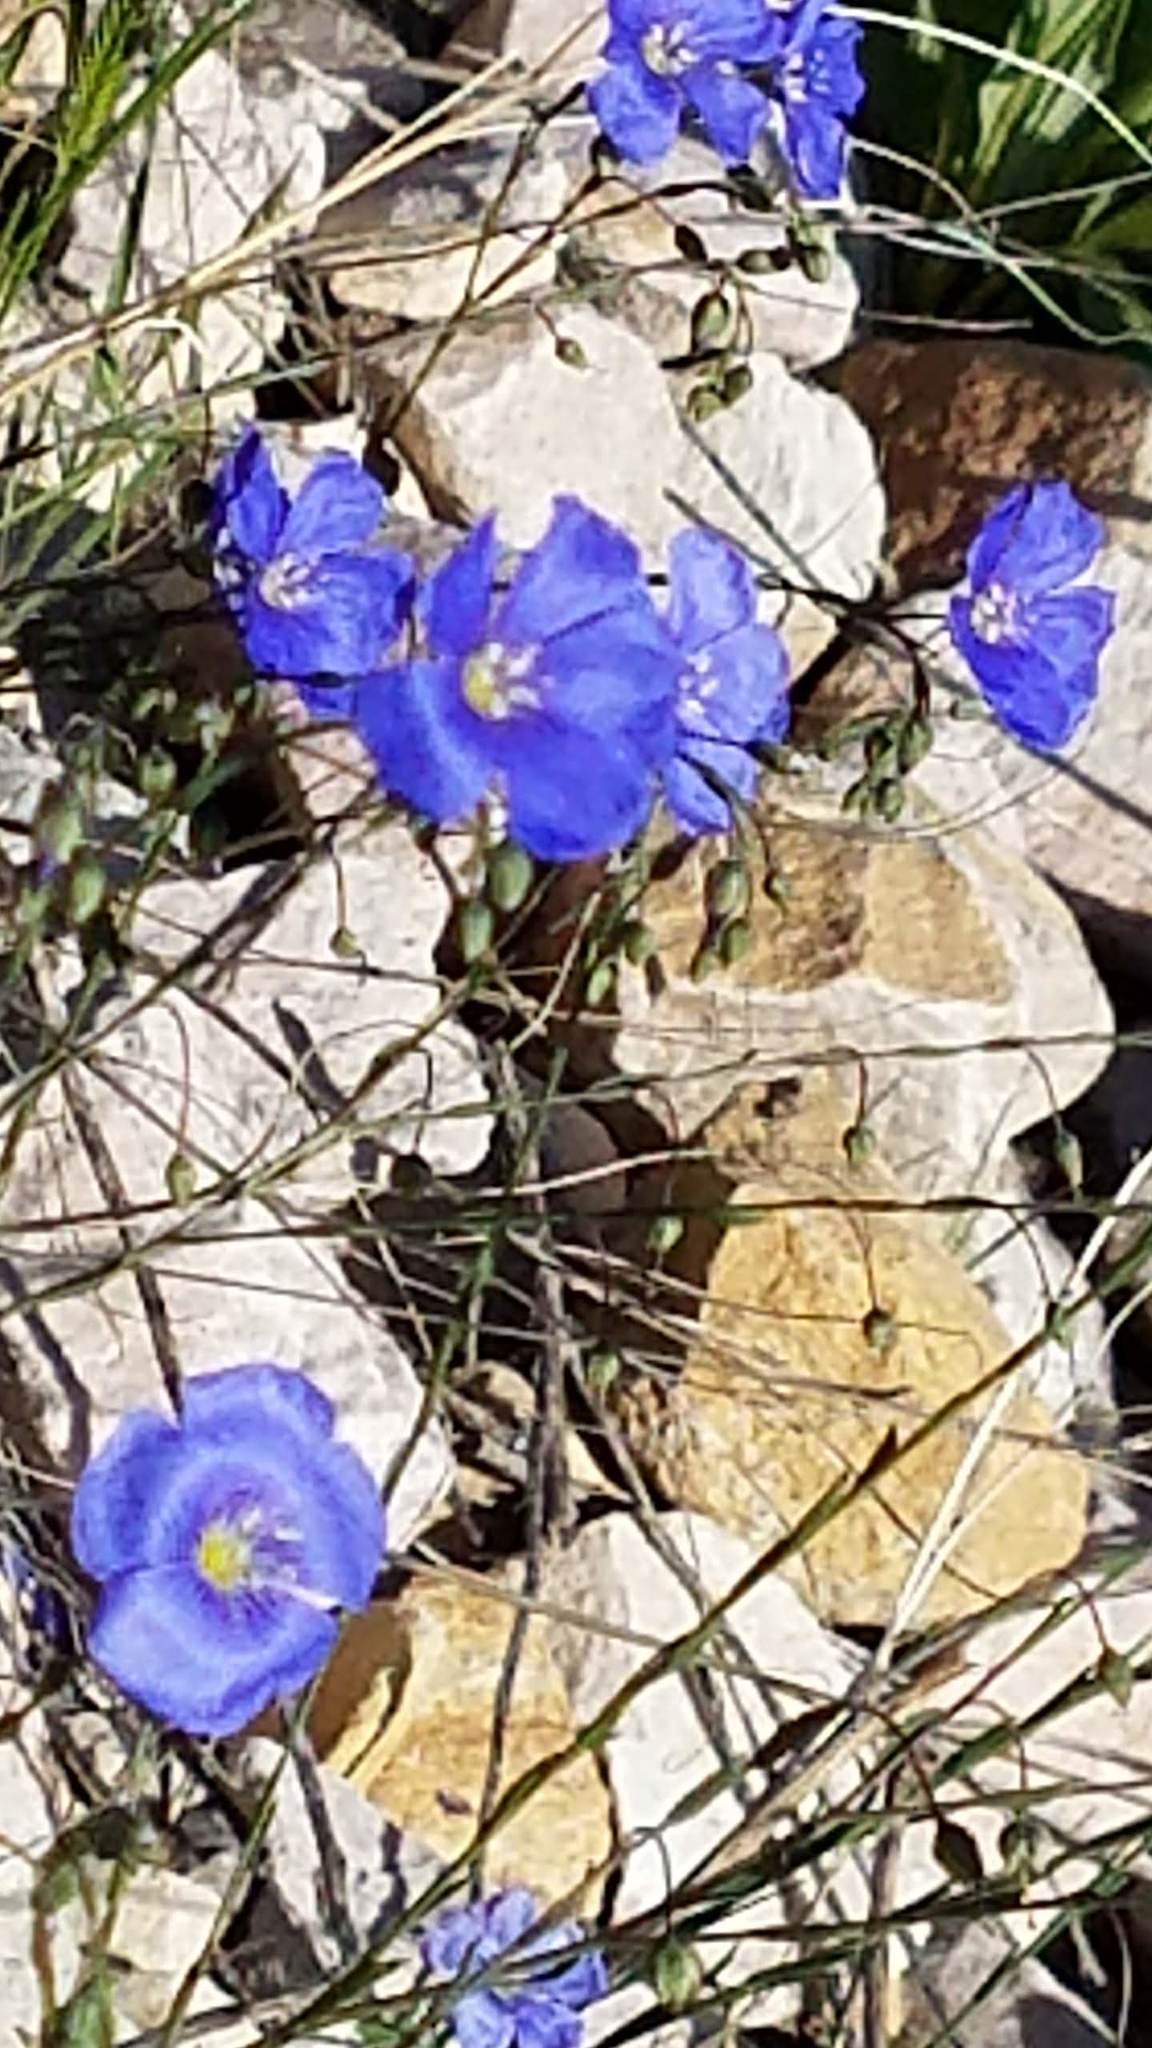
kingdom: Plantae
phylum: Tracheophyta
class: Magnoliopsida
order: Malpighiales
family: Linaceae
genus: Linum
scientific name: Linum lewisii
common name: Prairie flax
